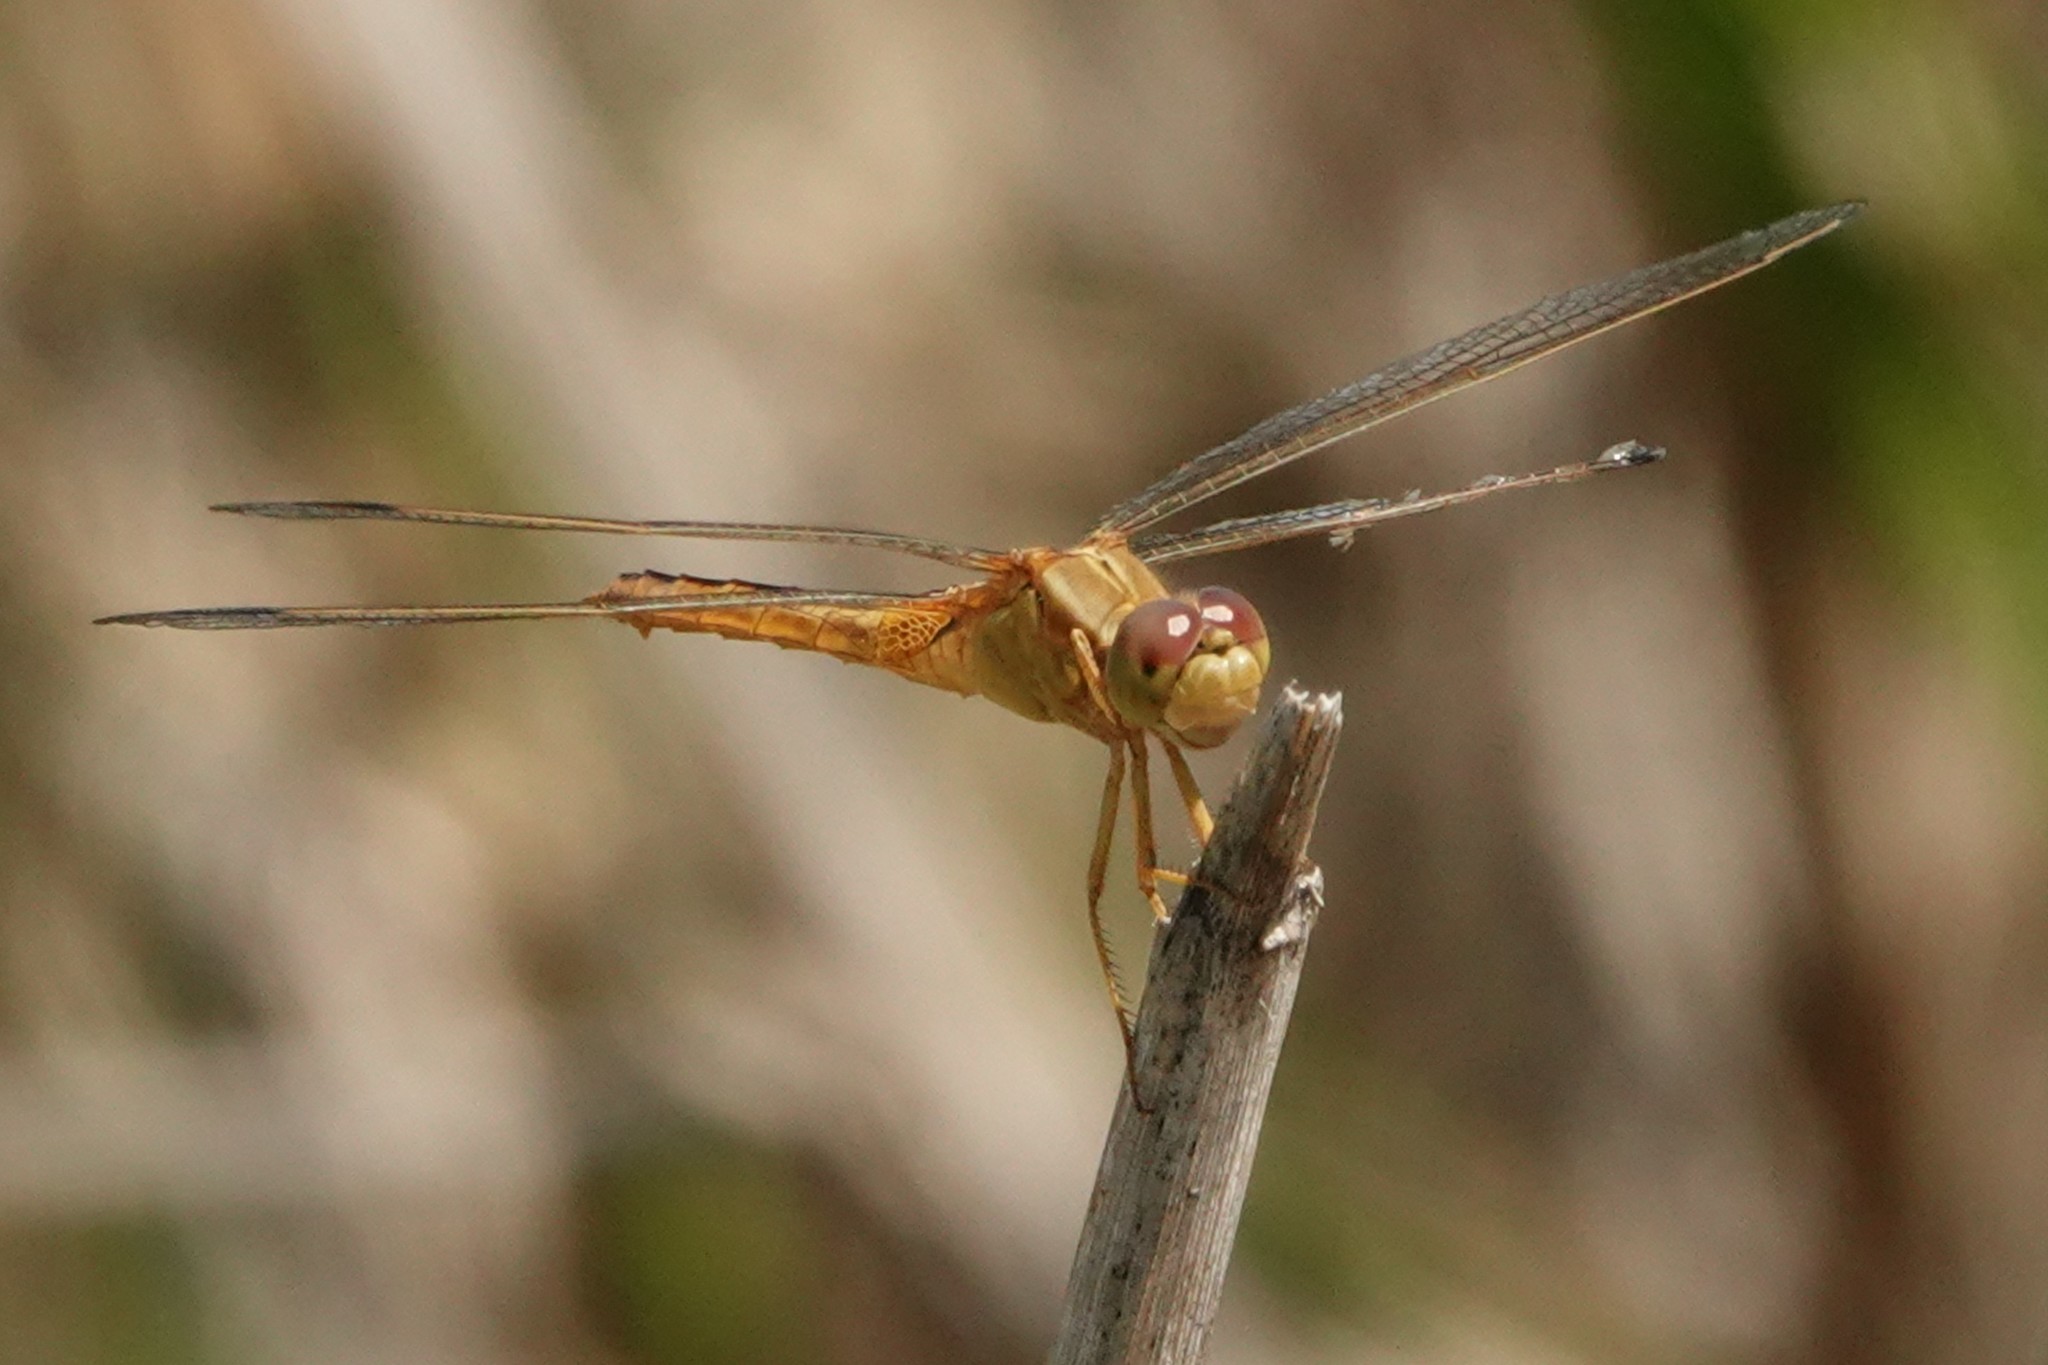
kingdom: Animalia
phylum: Arthropoda
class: Insecta
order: Odonata
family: Libellulidae
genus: Crocothemis
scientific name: Crocothemis servilia
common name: Scarlet skimmer
